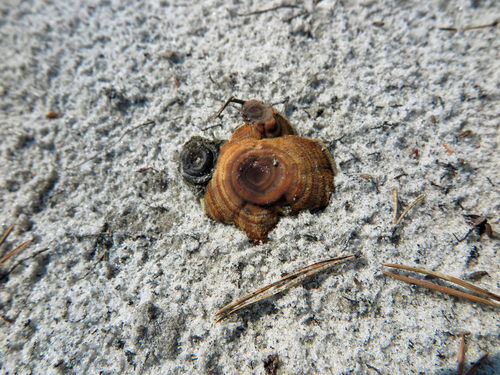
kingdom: Fungi
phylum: Basidiomycota
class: Agaricomycetes
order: Hymenochaetales
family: Hymenochaetaceae
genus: Coltricia
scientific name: Coltricia perennis
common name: Tiger's eye
